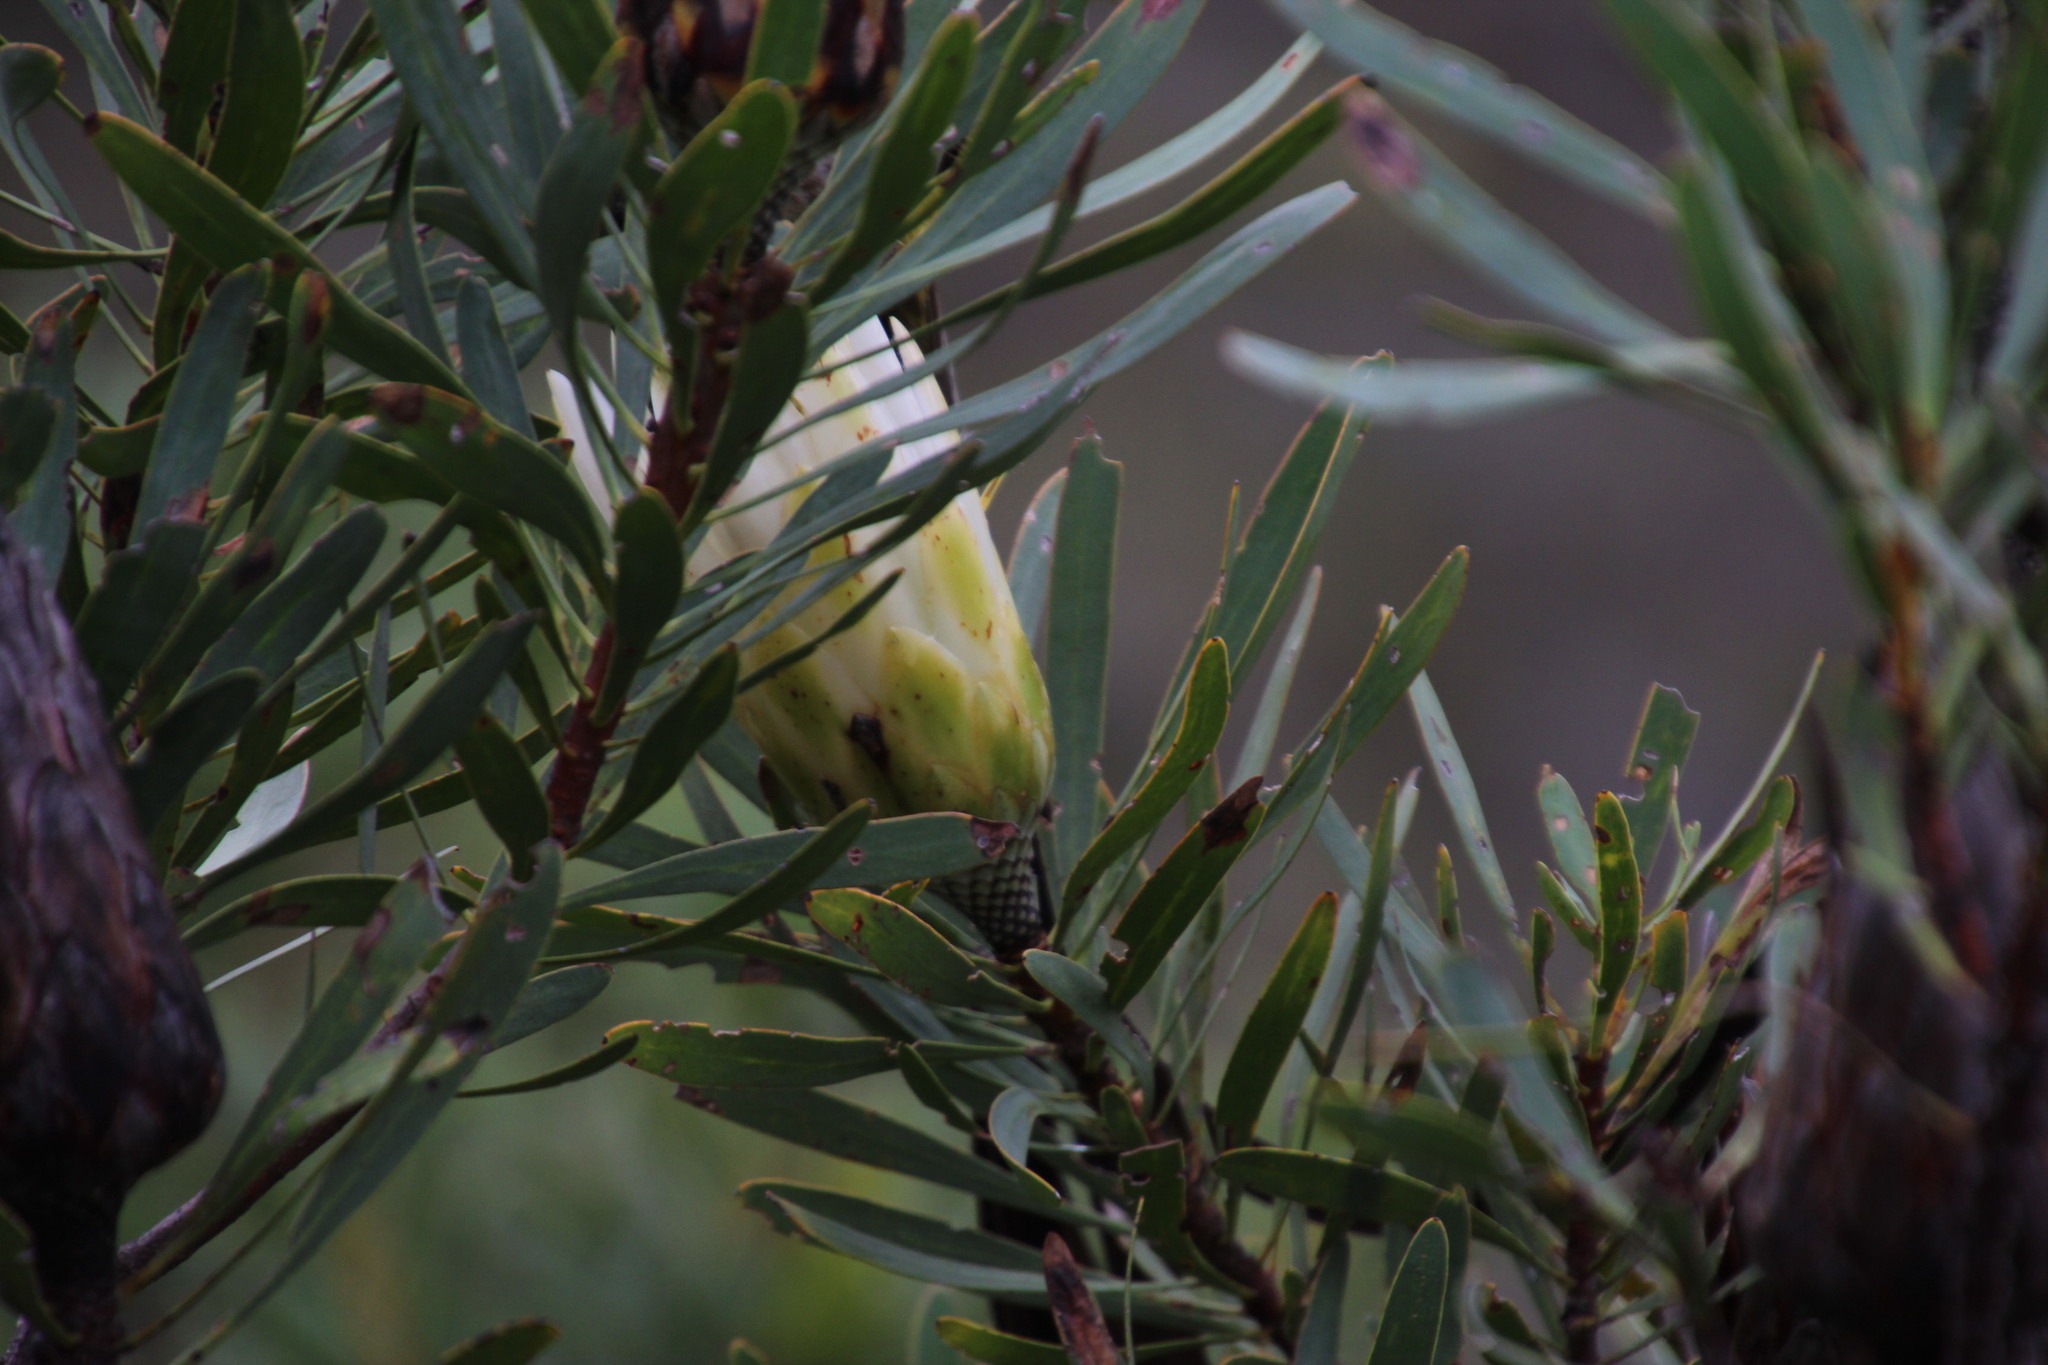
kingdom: Plantae
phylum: Tracheophyta
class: Magnoliopsida
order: Proteales
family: Proteaceae
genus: Protea
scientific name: Protea repens
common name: Sugarbush
